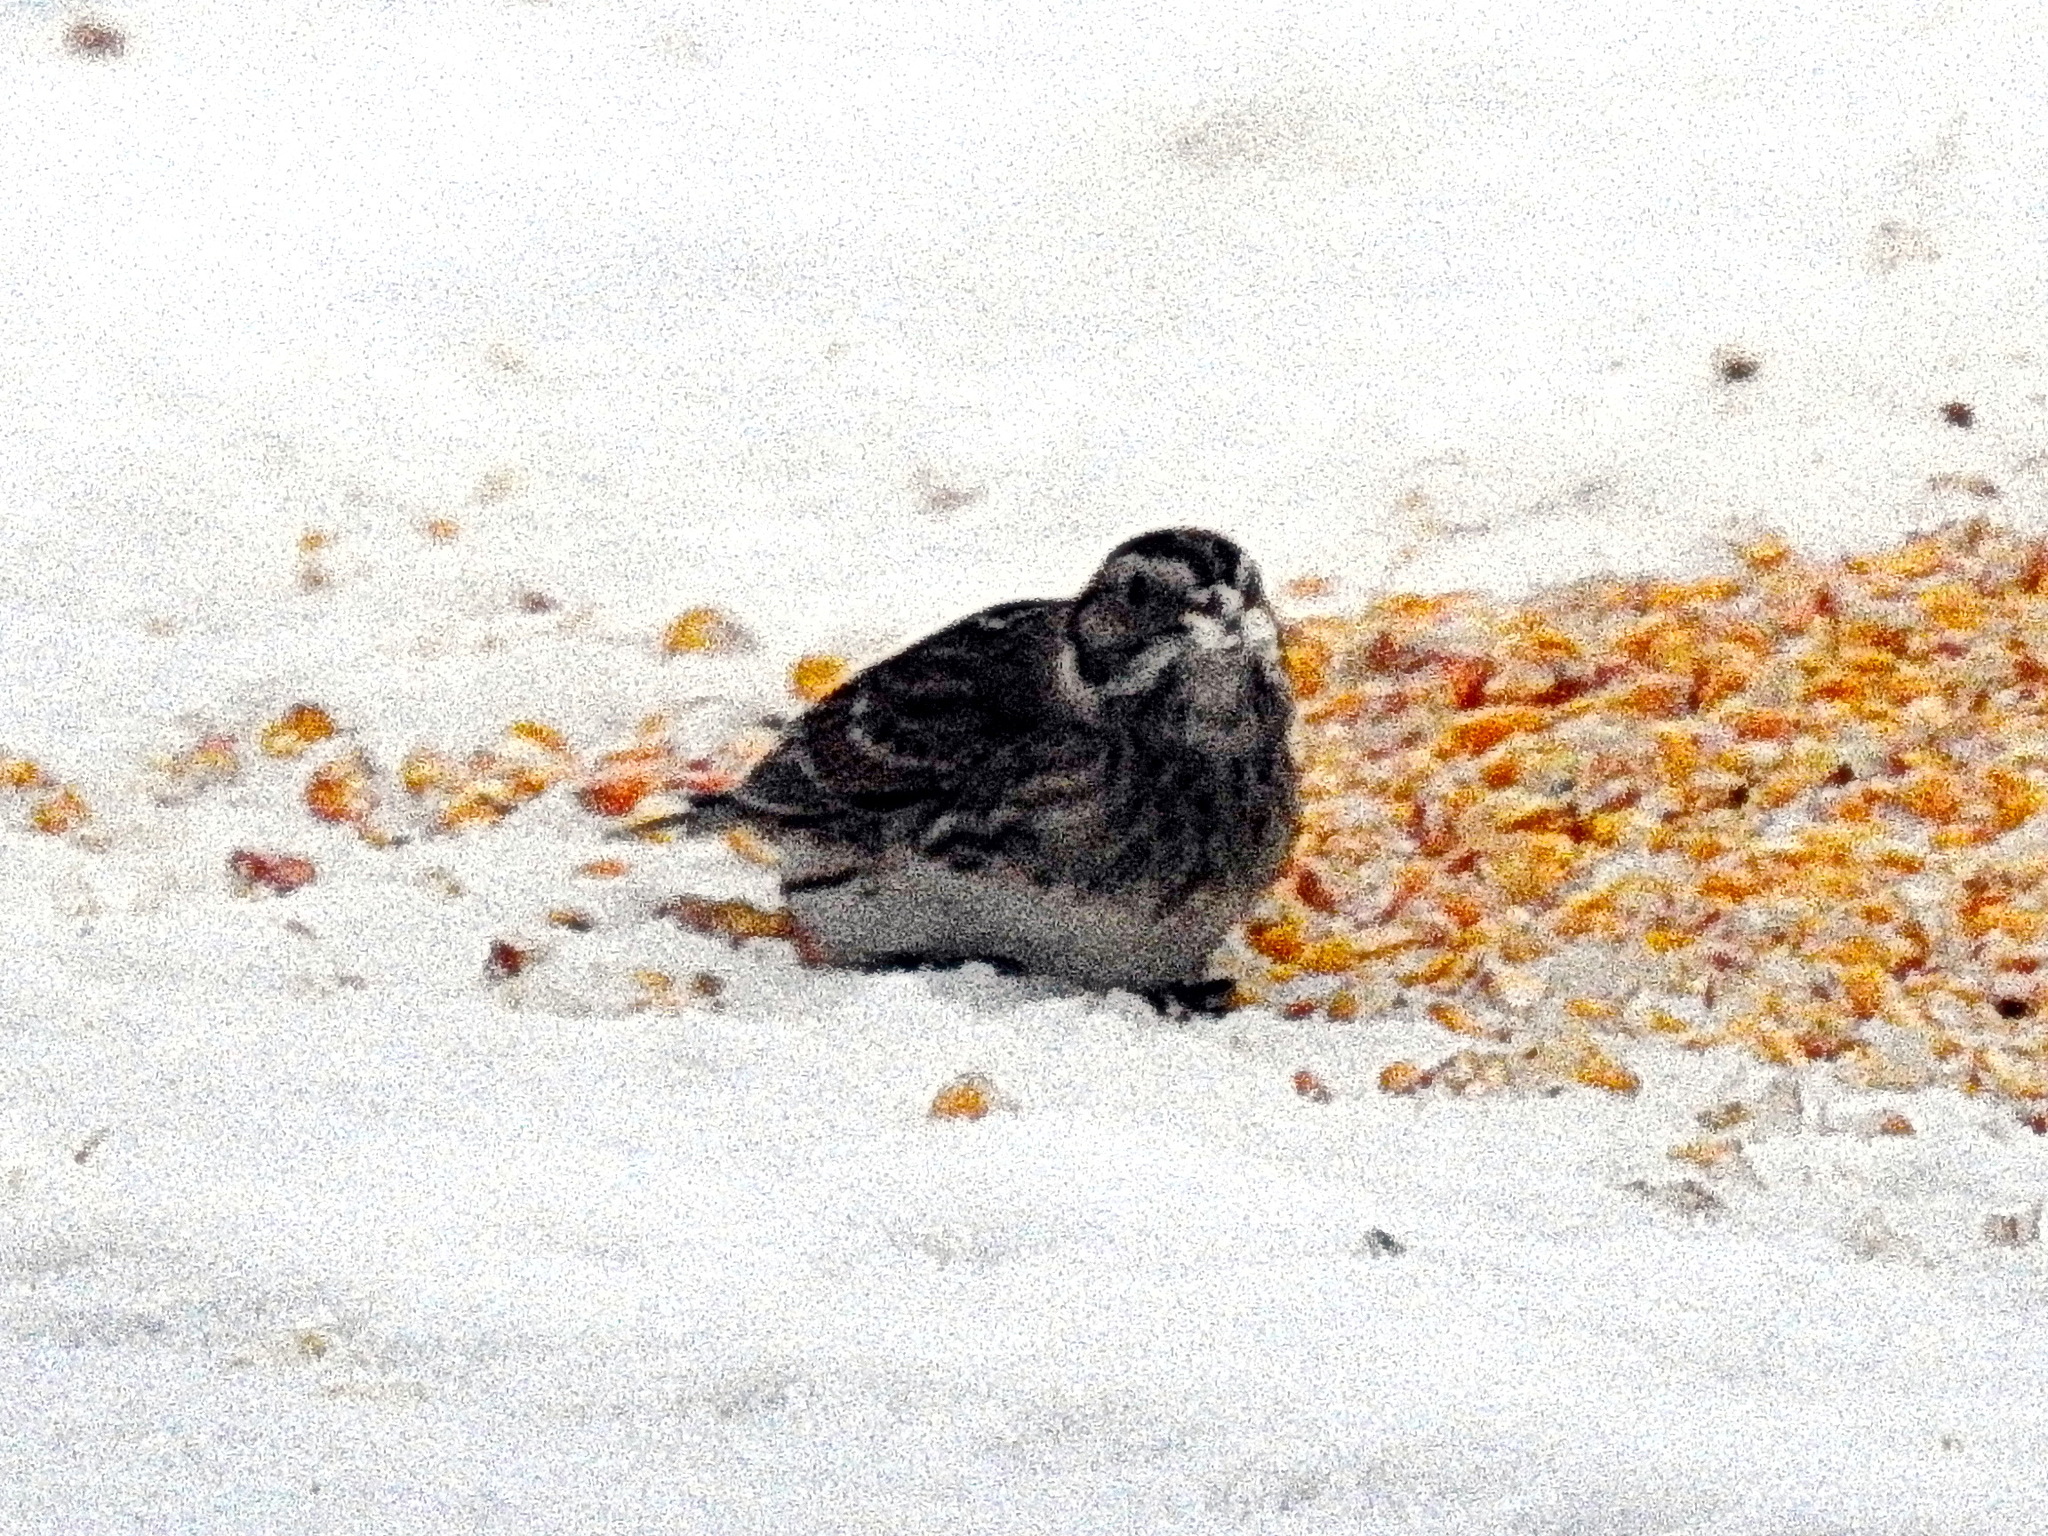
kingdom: Animalia
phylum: Chordata
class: Aves
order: Passeriformes
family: Calcariidae
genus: Calcarius
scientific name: Calcarius lapponicus
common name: Lapland longspur
